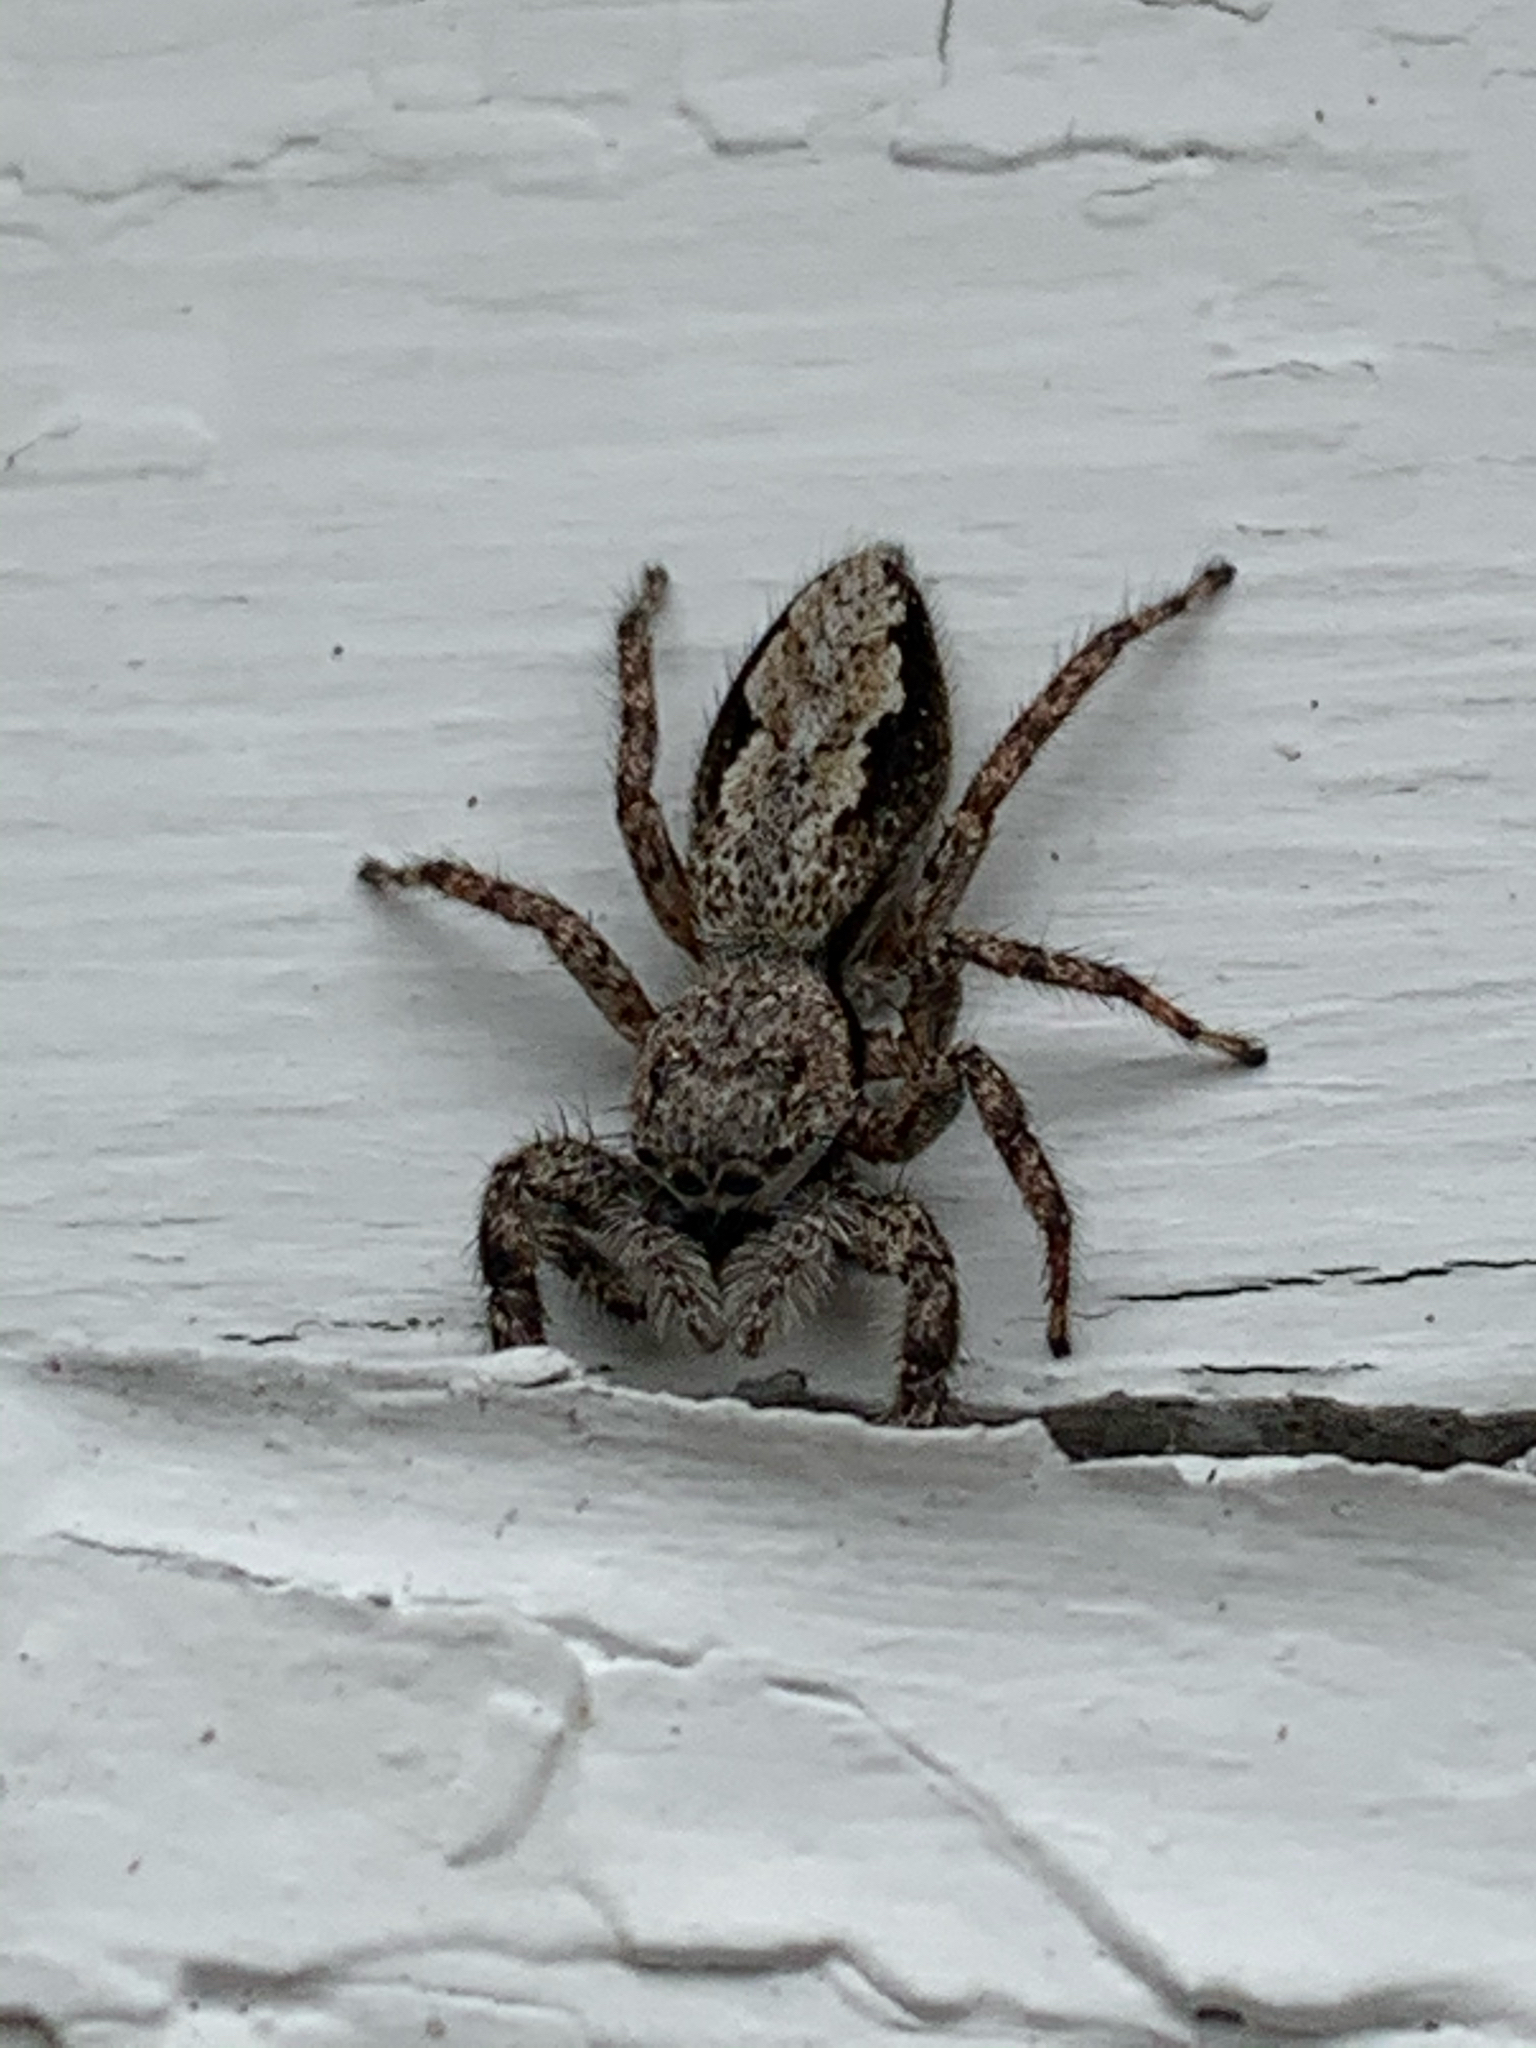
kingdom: Animalia
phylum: Arthropoda
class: Arachnida
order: Araneae
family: Salticidae
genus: Platycryptus
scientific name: Platycryptus undatus
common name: Tan jumping spider
